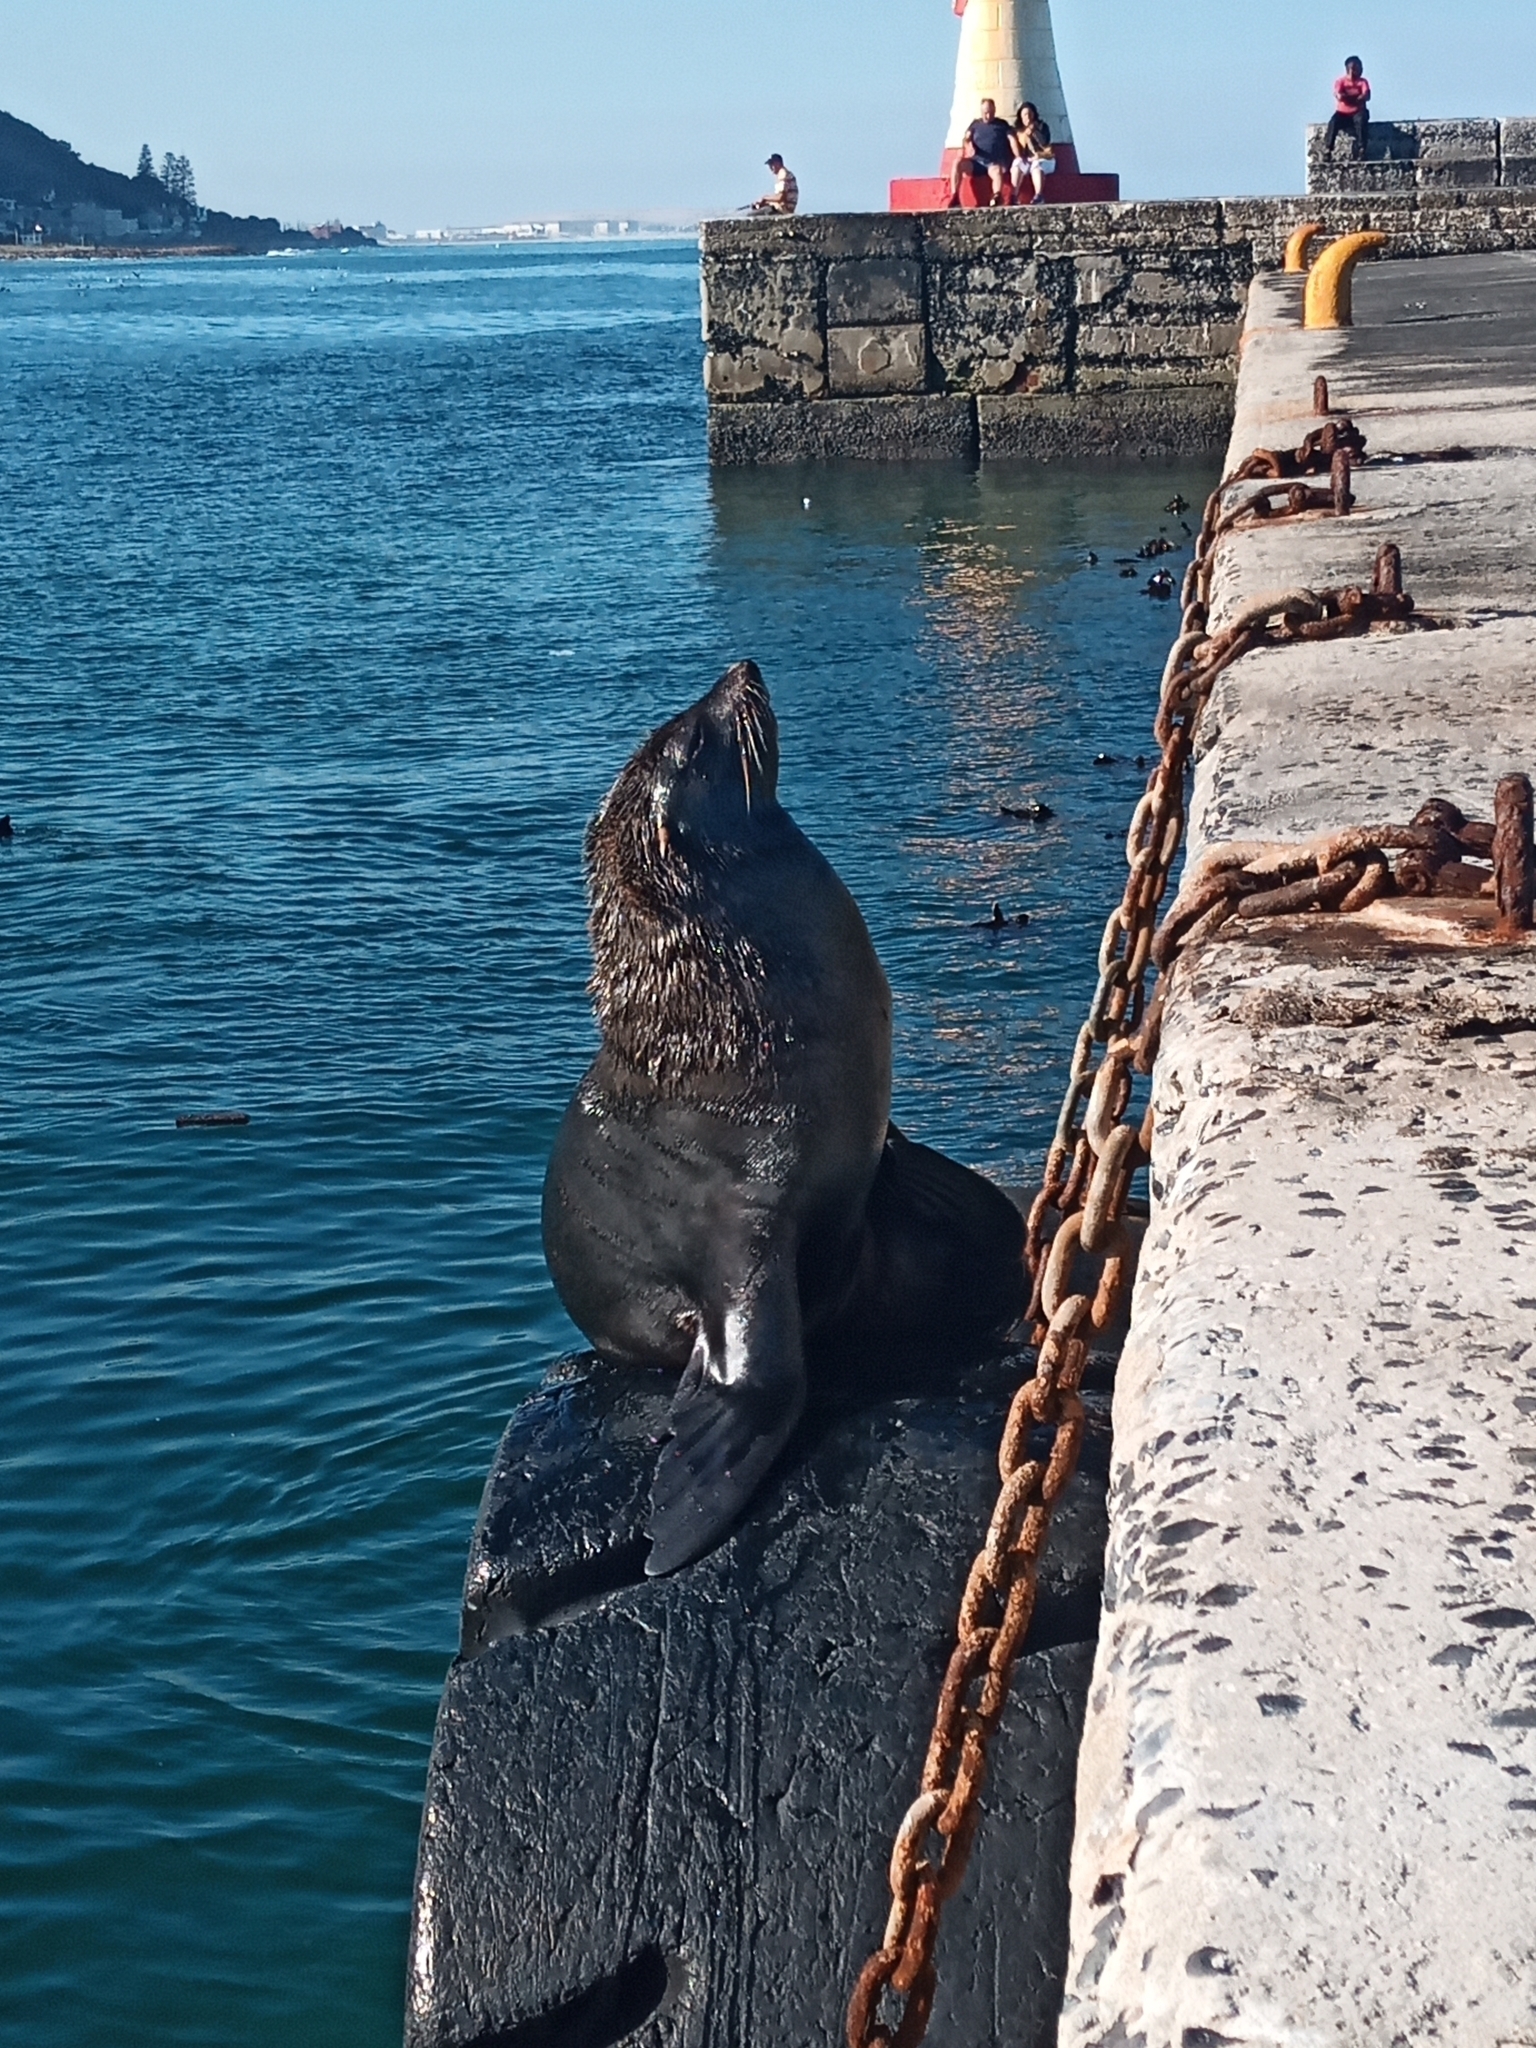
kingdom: Animalia
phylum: Chordata
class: Mammalia
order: Carnivora
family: Otariidae
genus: Arctocephalus
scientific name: Arctocephalus pusillus
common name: Brown fur seal
